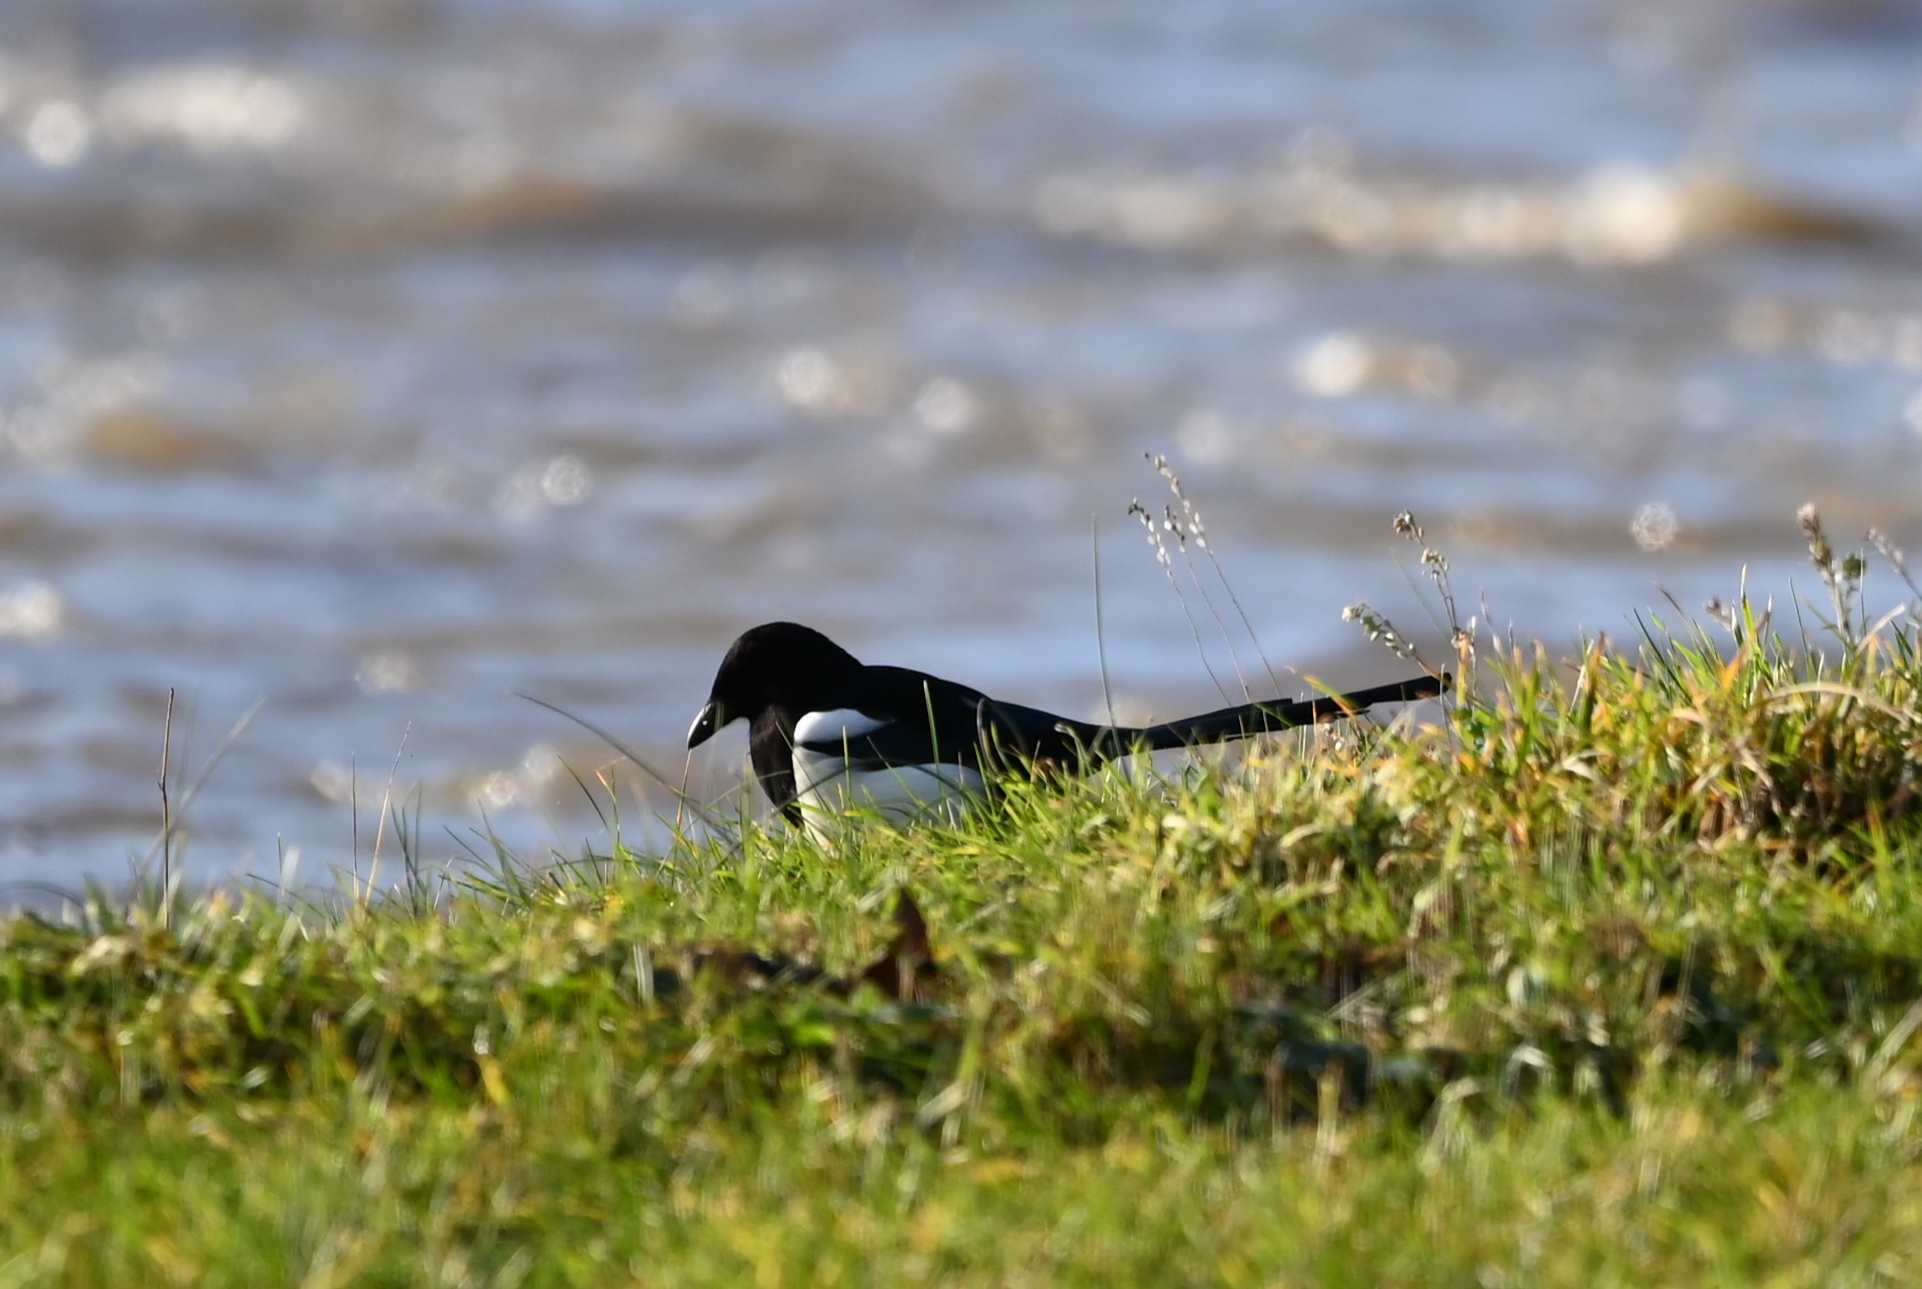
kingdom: Animalia
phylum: Chordata
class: Aves
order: Passeriformes
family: Corvidae
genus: Pica
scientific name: Pica pica
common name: Eurasian magpie
